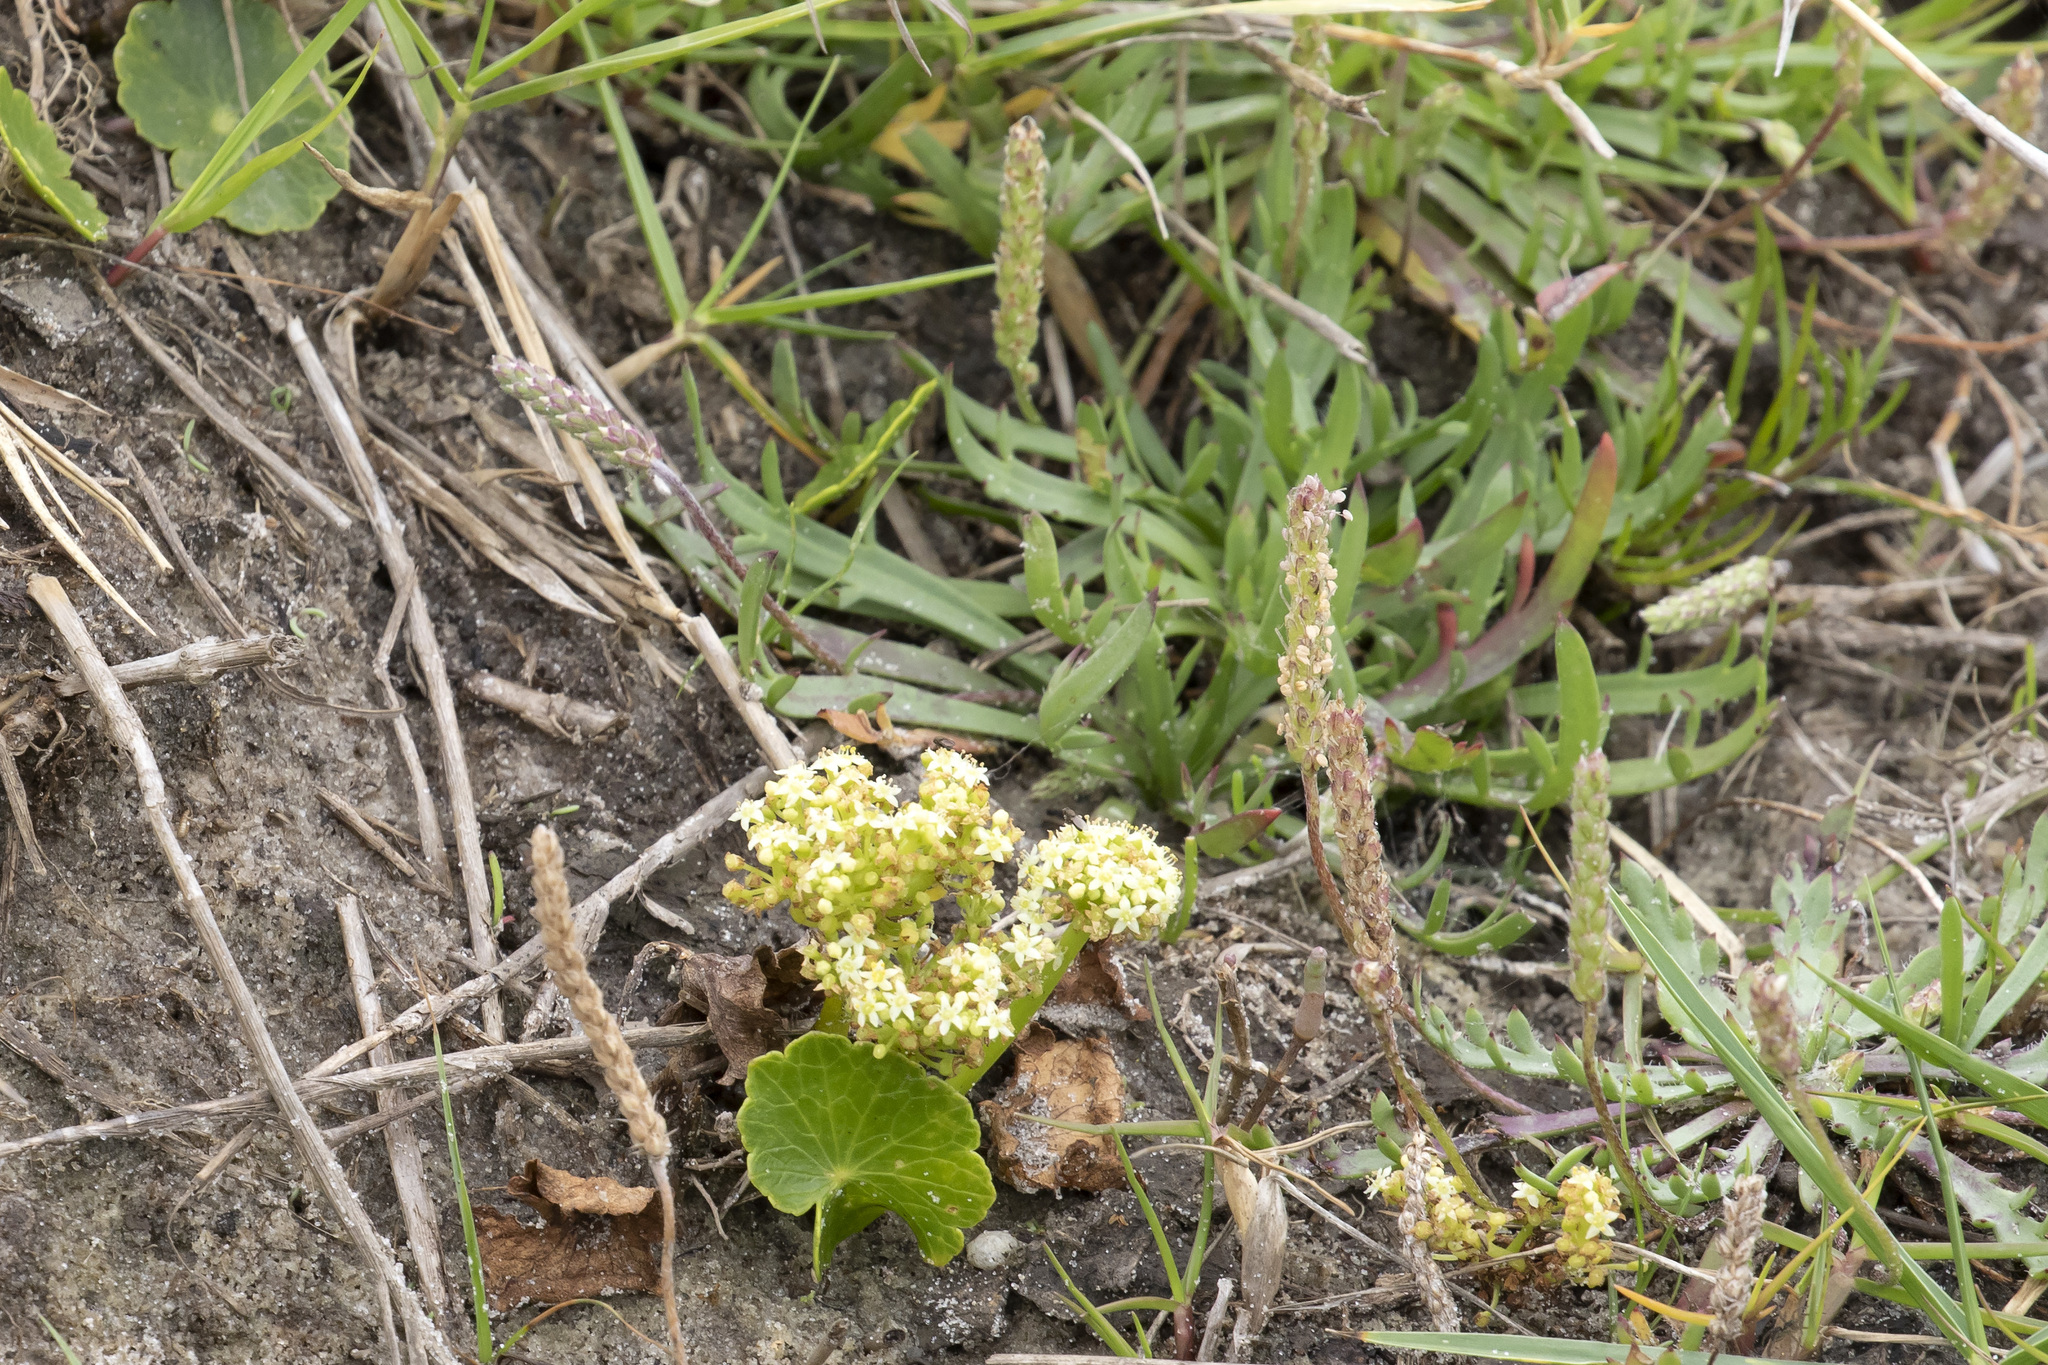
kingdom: Plantae
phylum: Tracheophyta
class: Magnoliopsida
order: Apiales
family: Araliaceae
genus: Hydrocotyle
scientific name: Hydrocotyle bonariensis
